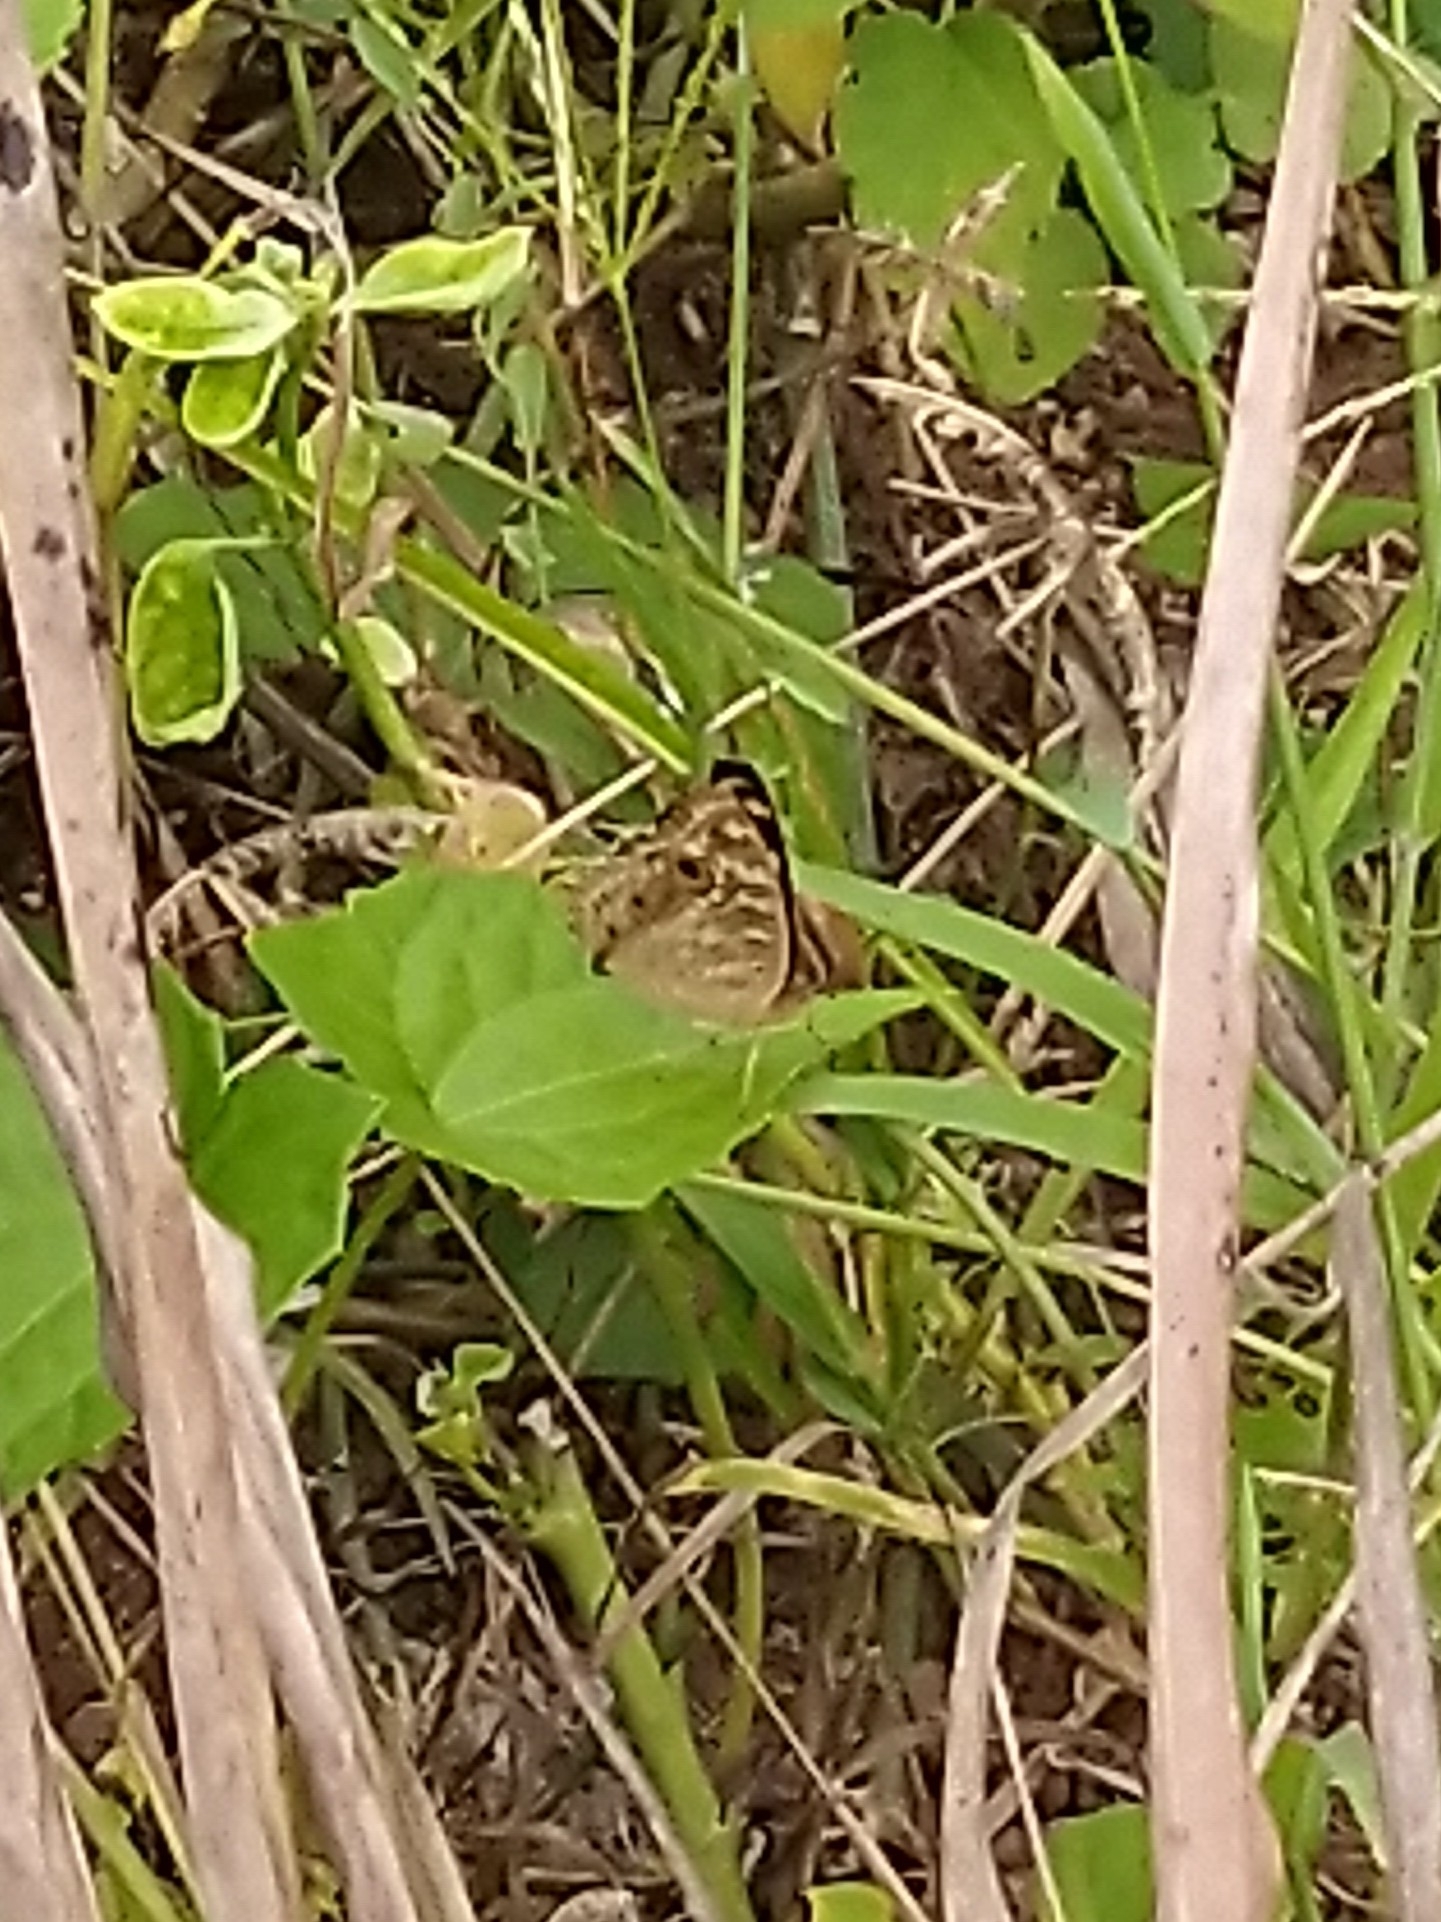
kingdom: Animalia
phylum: Arthropoda
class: Insecta
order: Lepidoptera
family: Nymphalidae
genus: Junonia
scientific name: Junonia lemonias
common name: Lemon pansy
